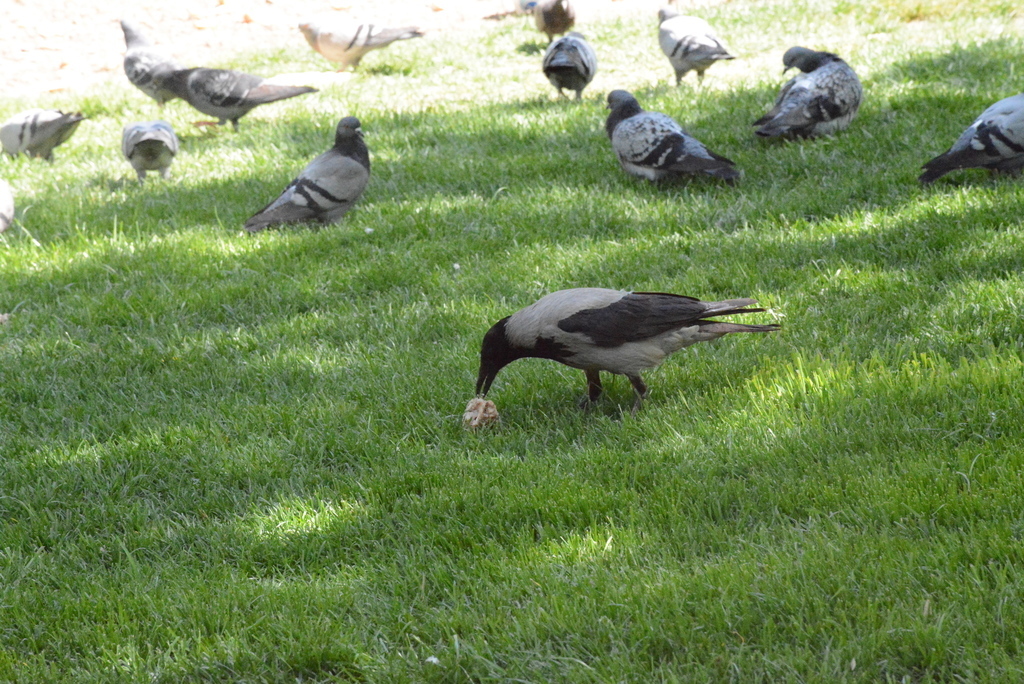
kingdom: Animalia
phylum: Chordata
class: Aves
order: Passeriformes
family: Corvidae
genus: Corvus
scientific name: Corvus cornix
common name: Hooded crow
